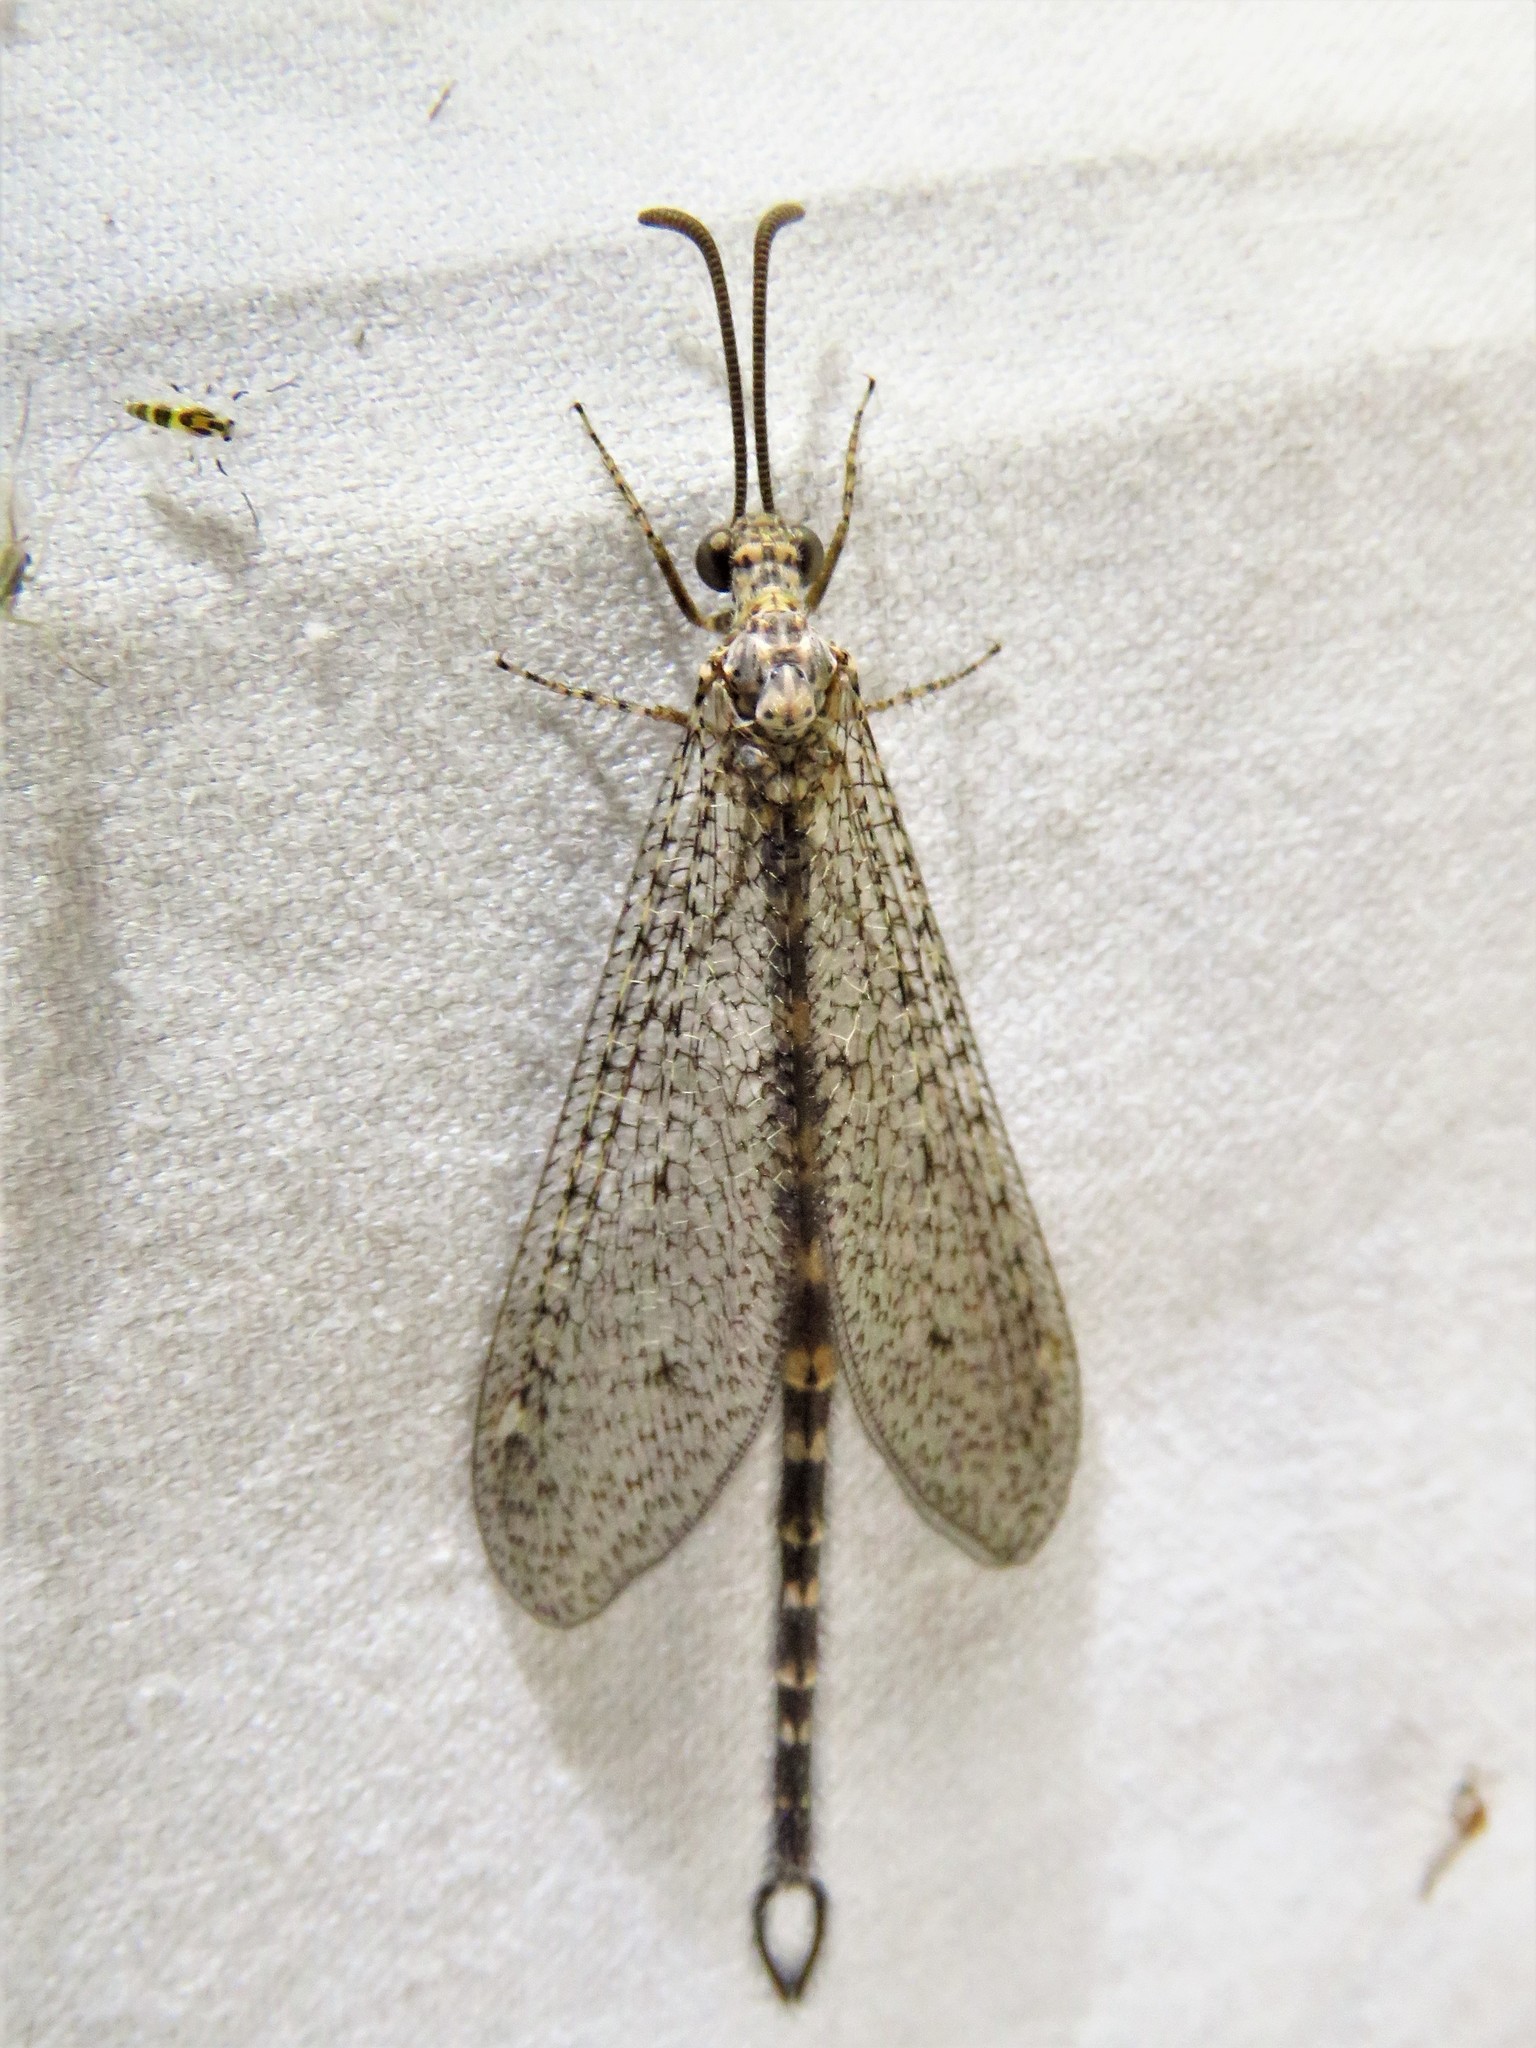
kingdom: Animalia
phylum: Arthropoda
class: Insecta
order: Neuroptera
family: Myrmeleontidae
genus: Brachynemurus
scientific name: Brachynemurus sackeni
